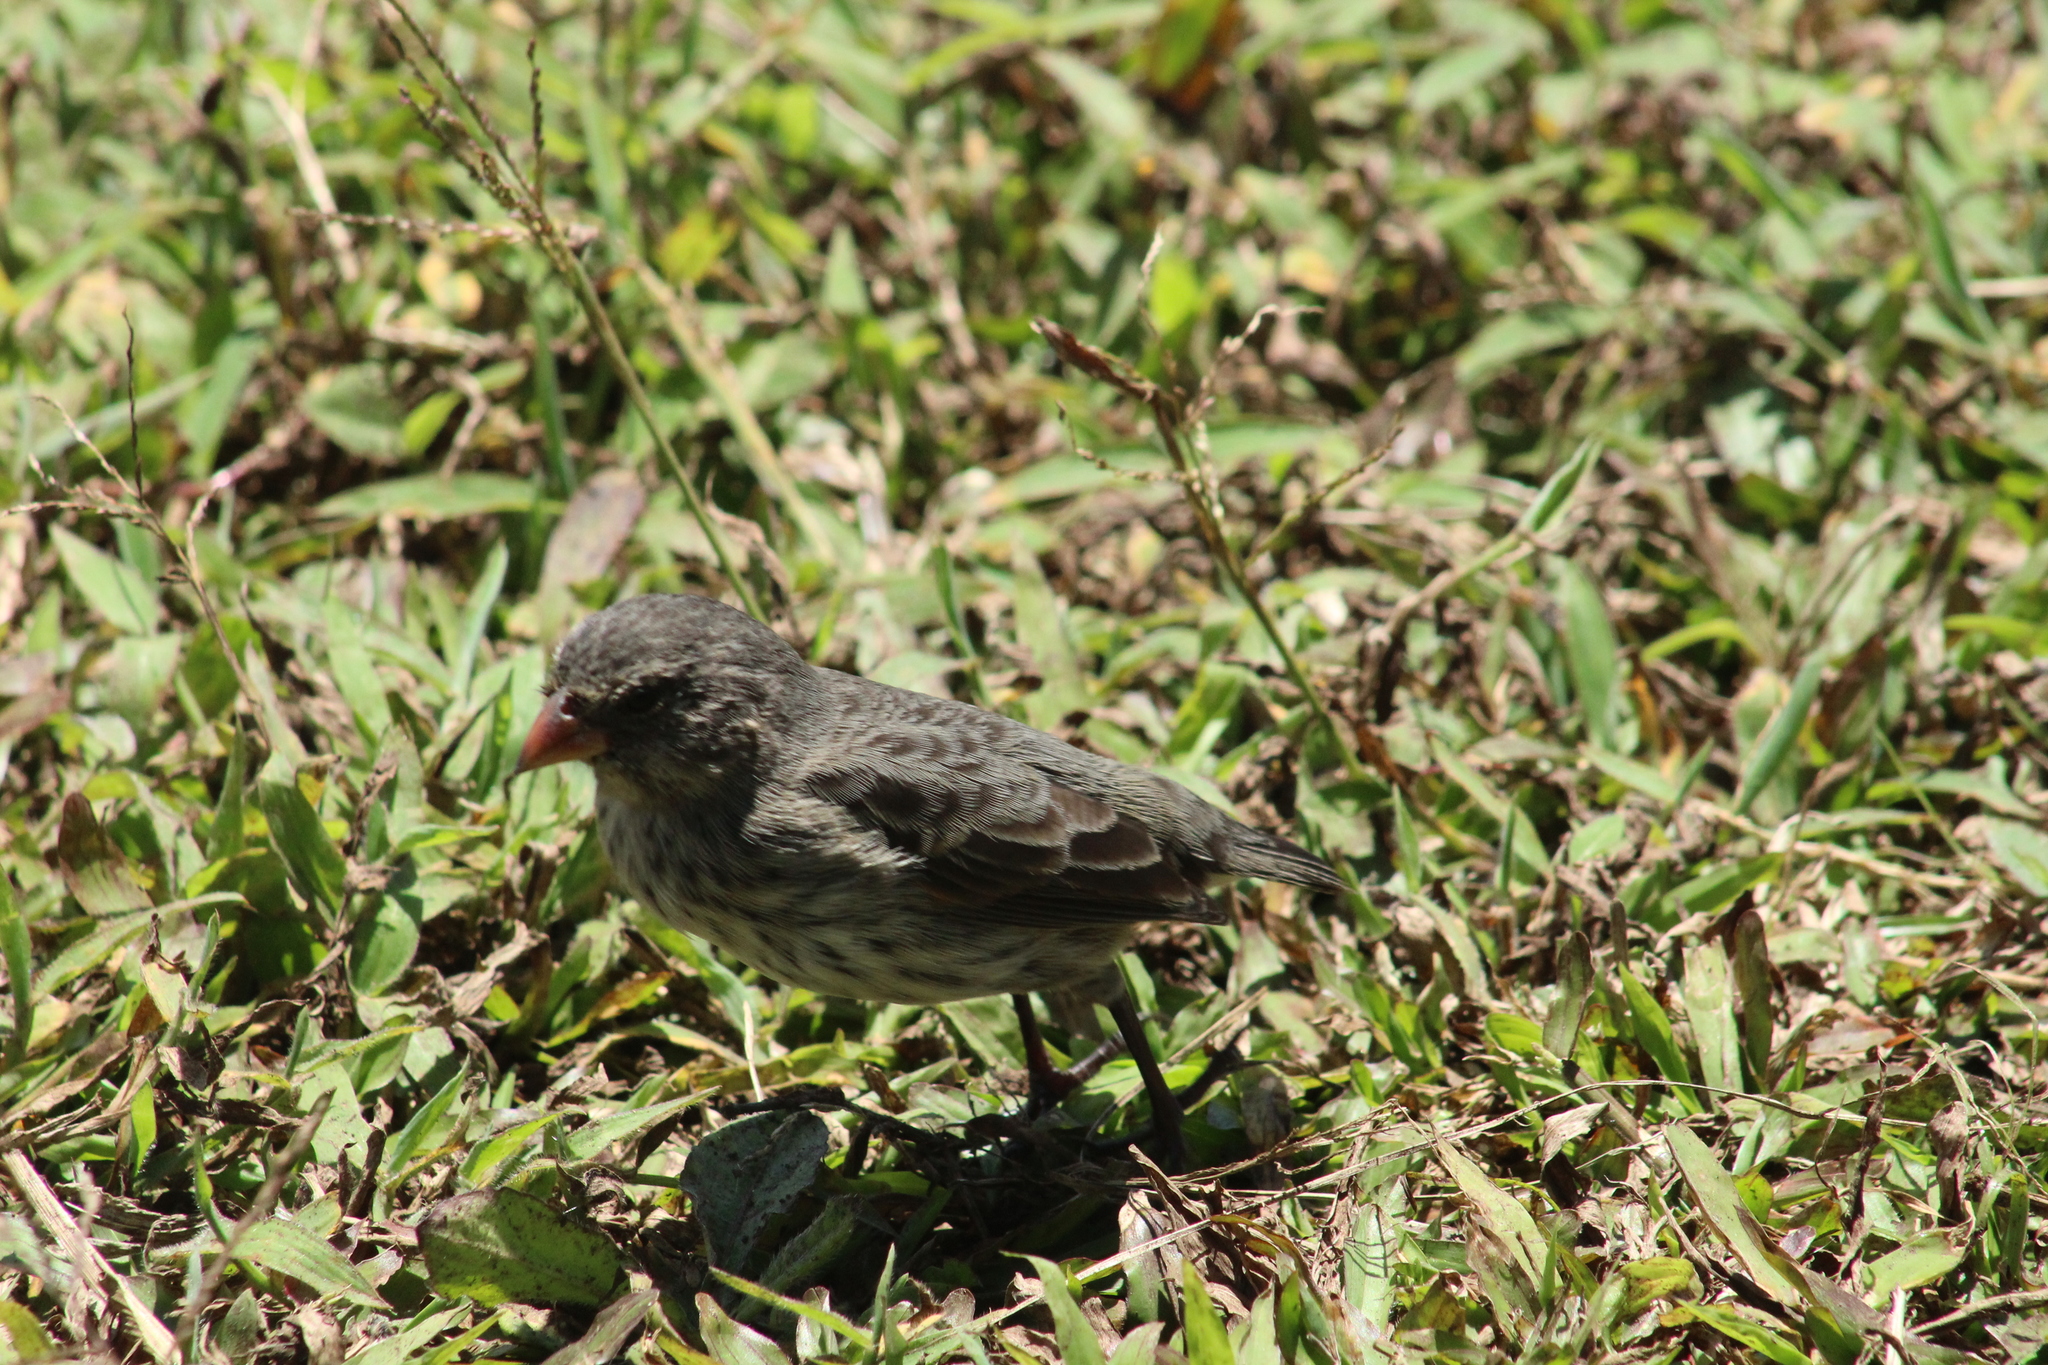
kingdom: Animalia
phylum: Chordata
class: Aves
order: Passeriformes
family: Thraupidae
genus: Geospiza
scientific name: Geospiza fortis
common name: Medium ground finch
